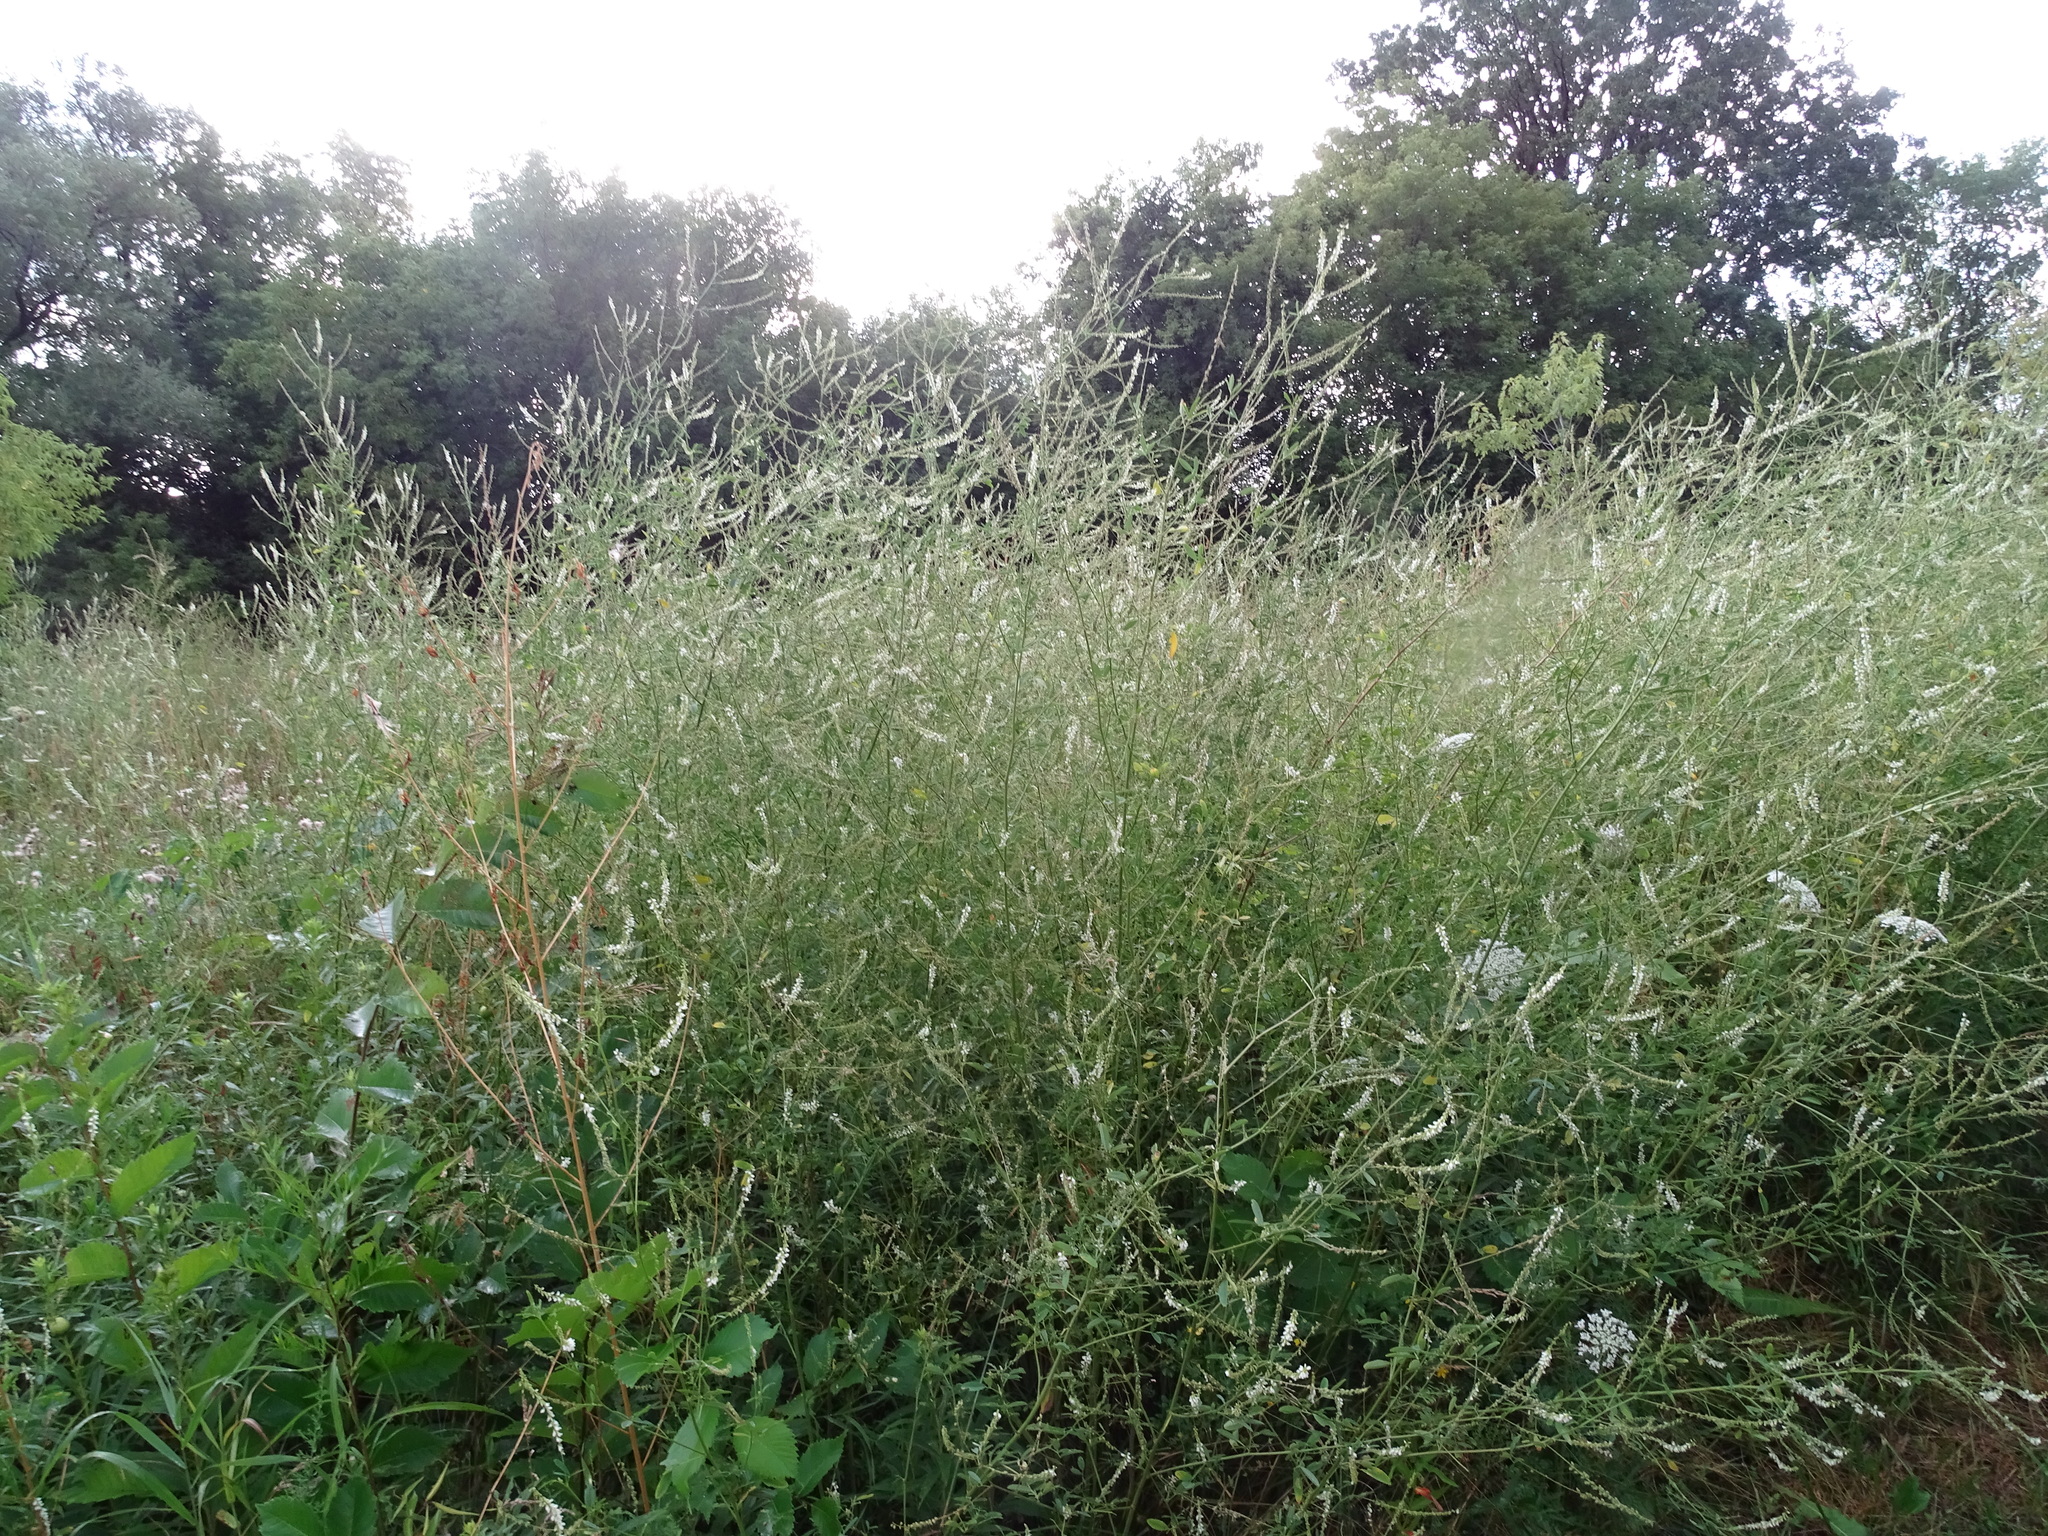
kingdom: Plantae
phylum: Tracheophyta
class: Magnoliopsida
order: Fabales
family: Fabaceae
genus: Melilotus
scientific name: Melilotus albus
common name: White melilot
